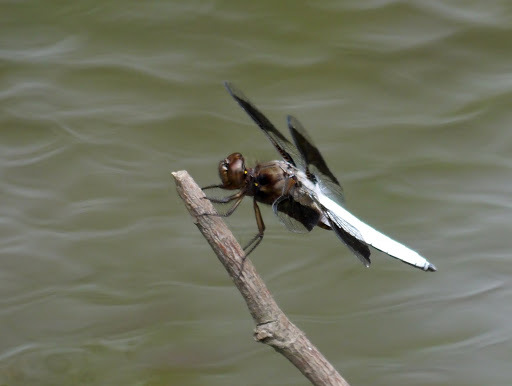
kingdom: Animalia
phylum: Arthropoda
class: Insecta
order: Odonata
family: Libellulidae
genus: Plathemis
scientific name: Plathemis lydia
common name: Common whitetail
